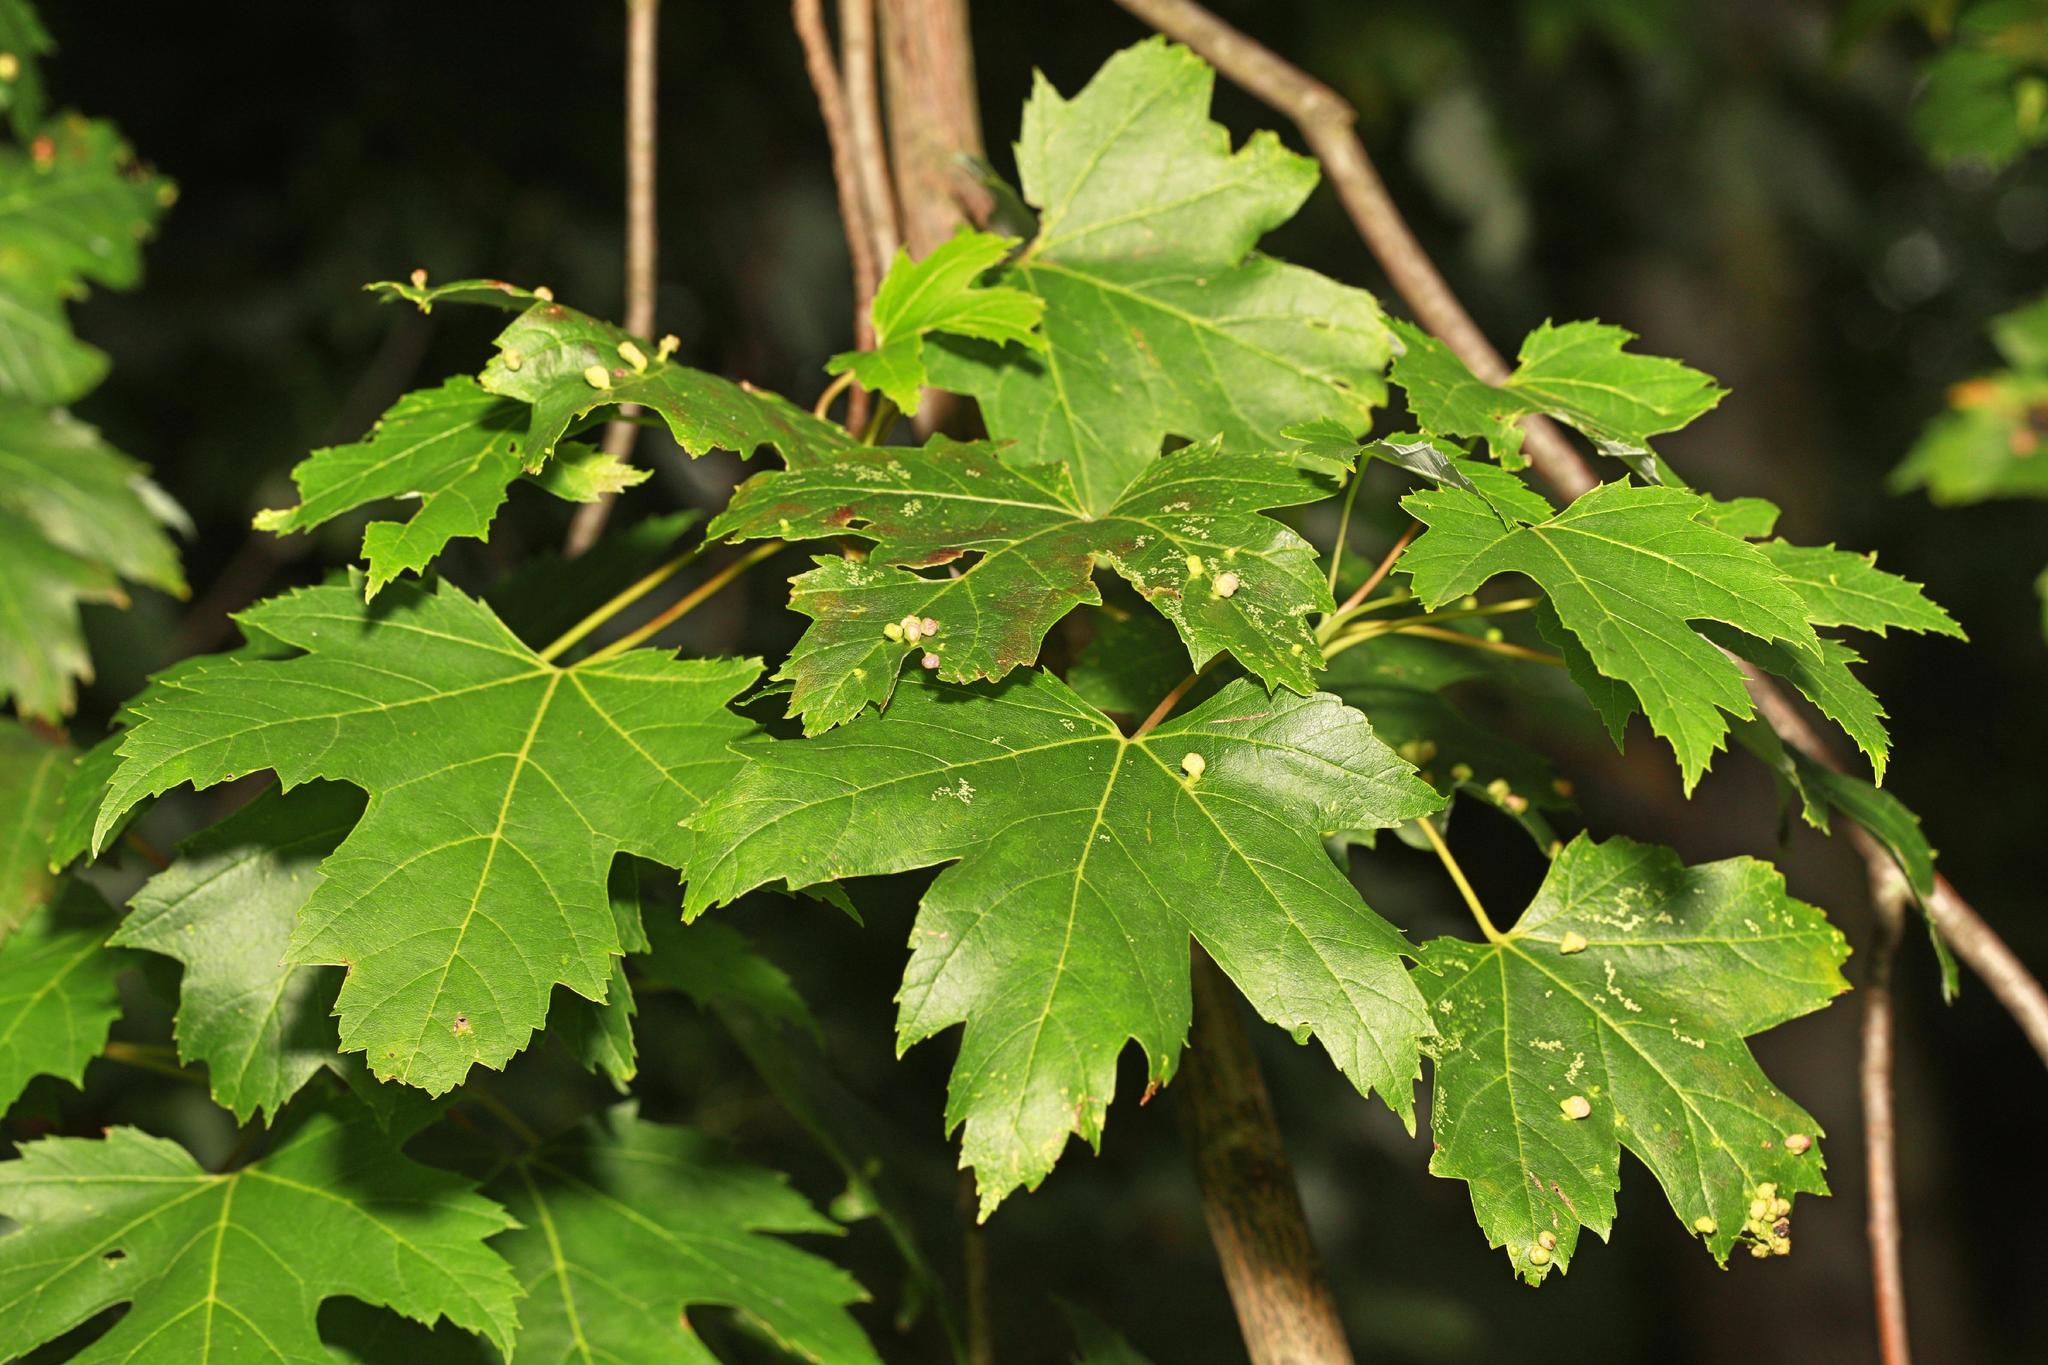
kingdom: Plantae
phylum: Tracheophyta
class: Magnoliopsida
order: Sapindales
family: Sapindaceae
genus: Acer
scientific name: Acer saccharinum
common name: Silver maple
